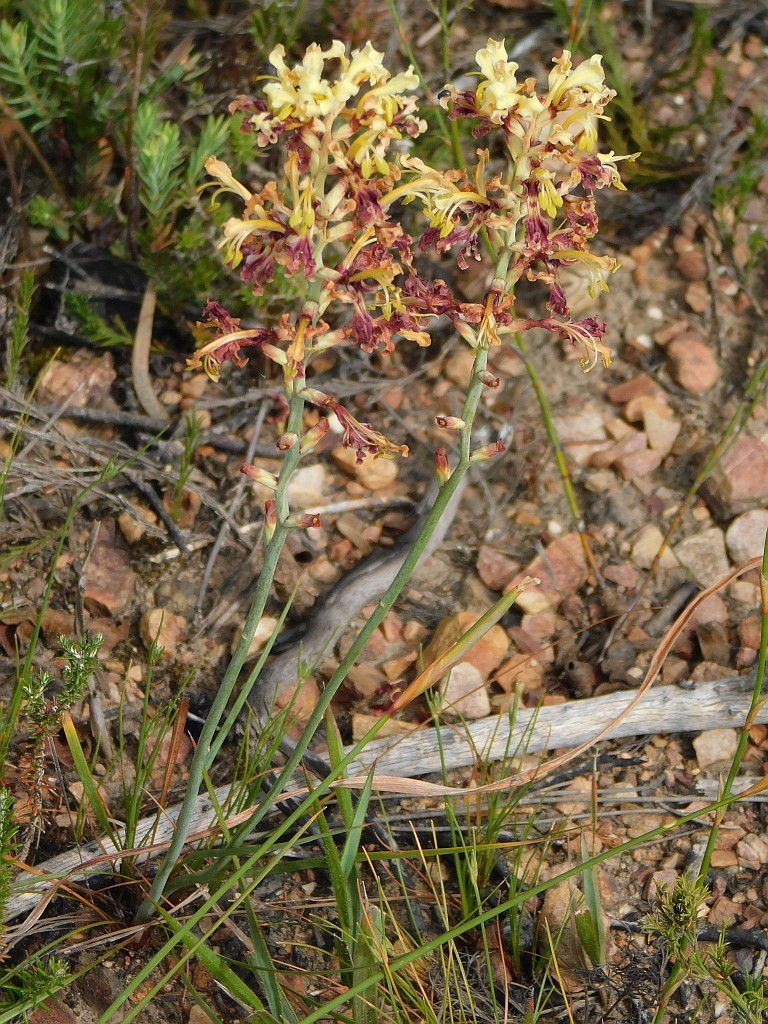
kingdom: Plantae
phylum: Tracheophyta
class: Liliopsida
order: Asparagales
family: Iridaceae
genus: Tritoniopsis
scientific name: Tritoniopsis parviflora
